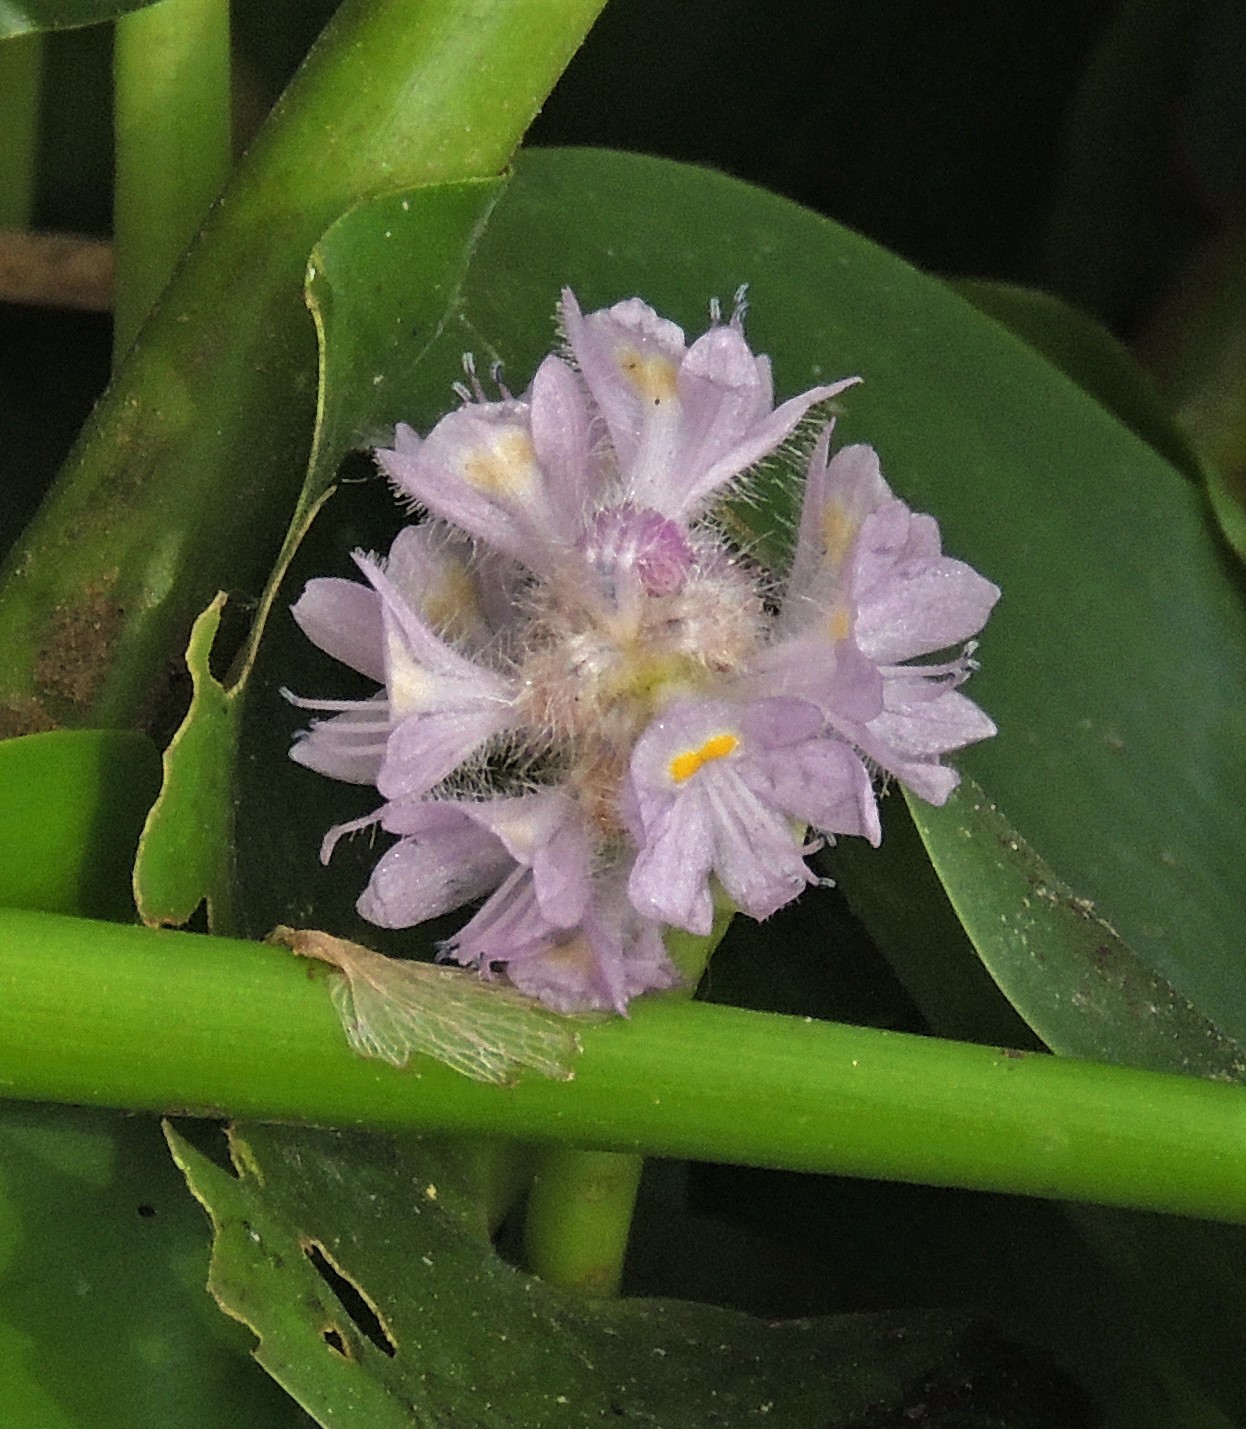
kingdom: Plantae
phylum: Tracheophyta
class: Liliopsida
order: Commelinales
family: Pontederiaceae
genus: Pontederia
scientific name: Pontederia rotundifolia
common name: Tropical pickerel-weed
